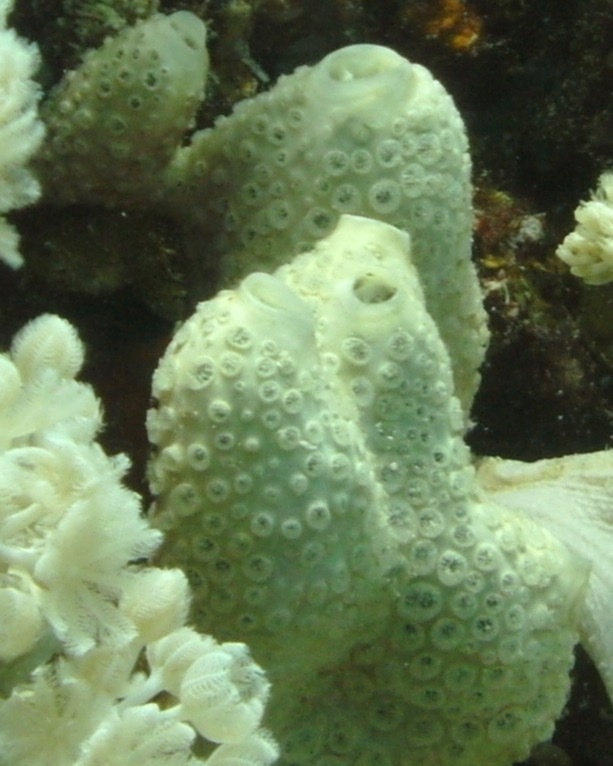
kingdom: Animalia
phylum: Porifera
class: Demospongiae
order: Poecilosclerida
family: Crellidae
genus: Crella
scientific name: Crella cyathophora
